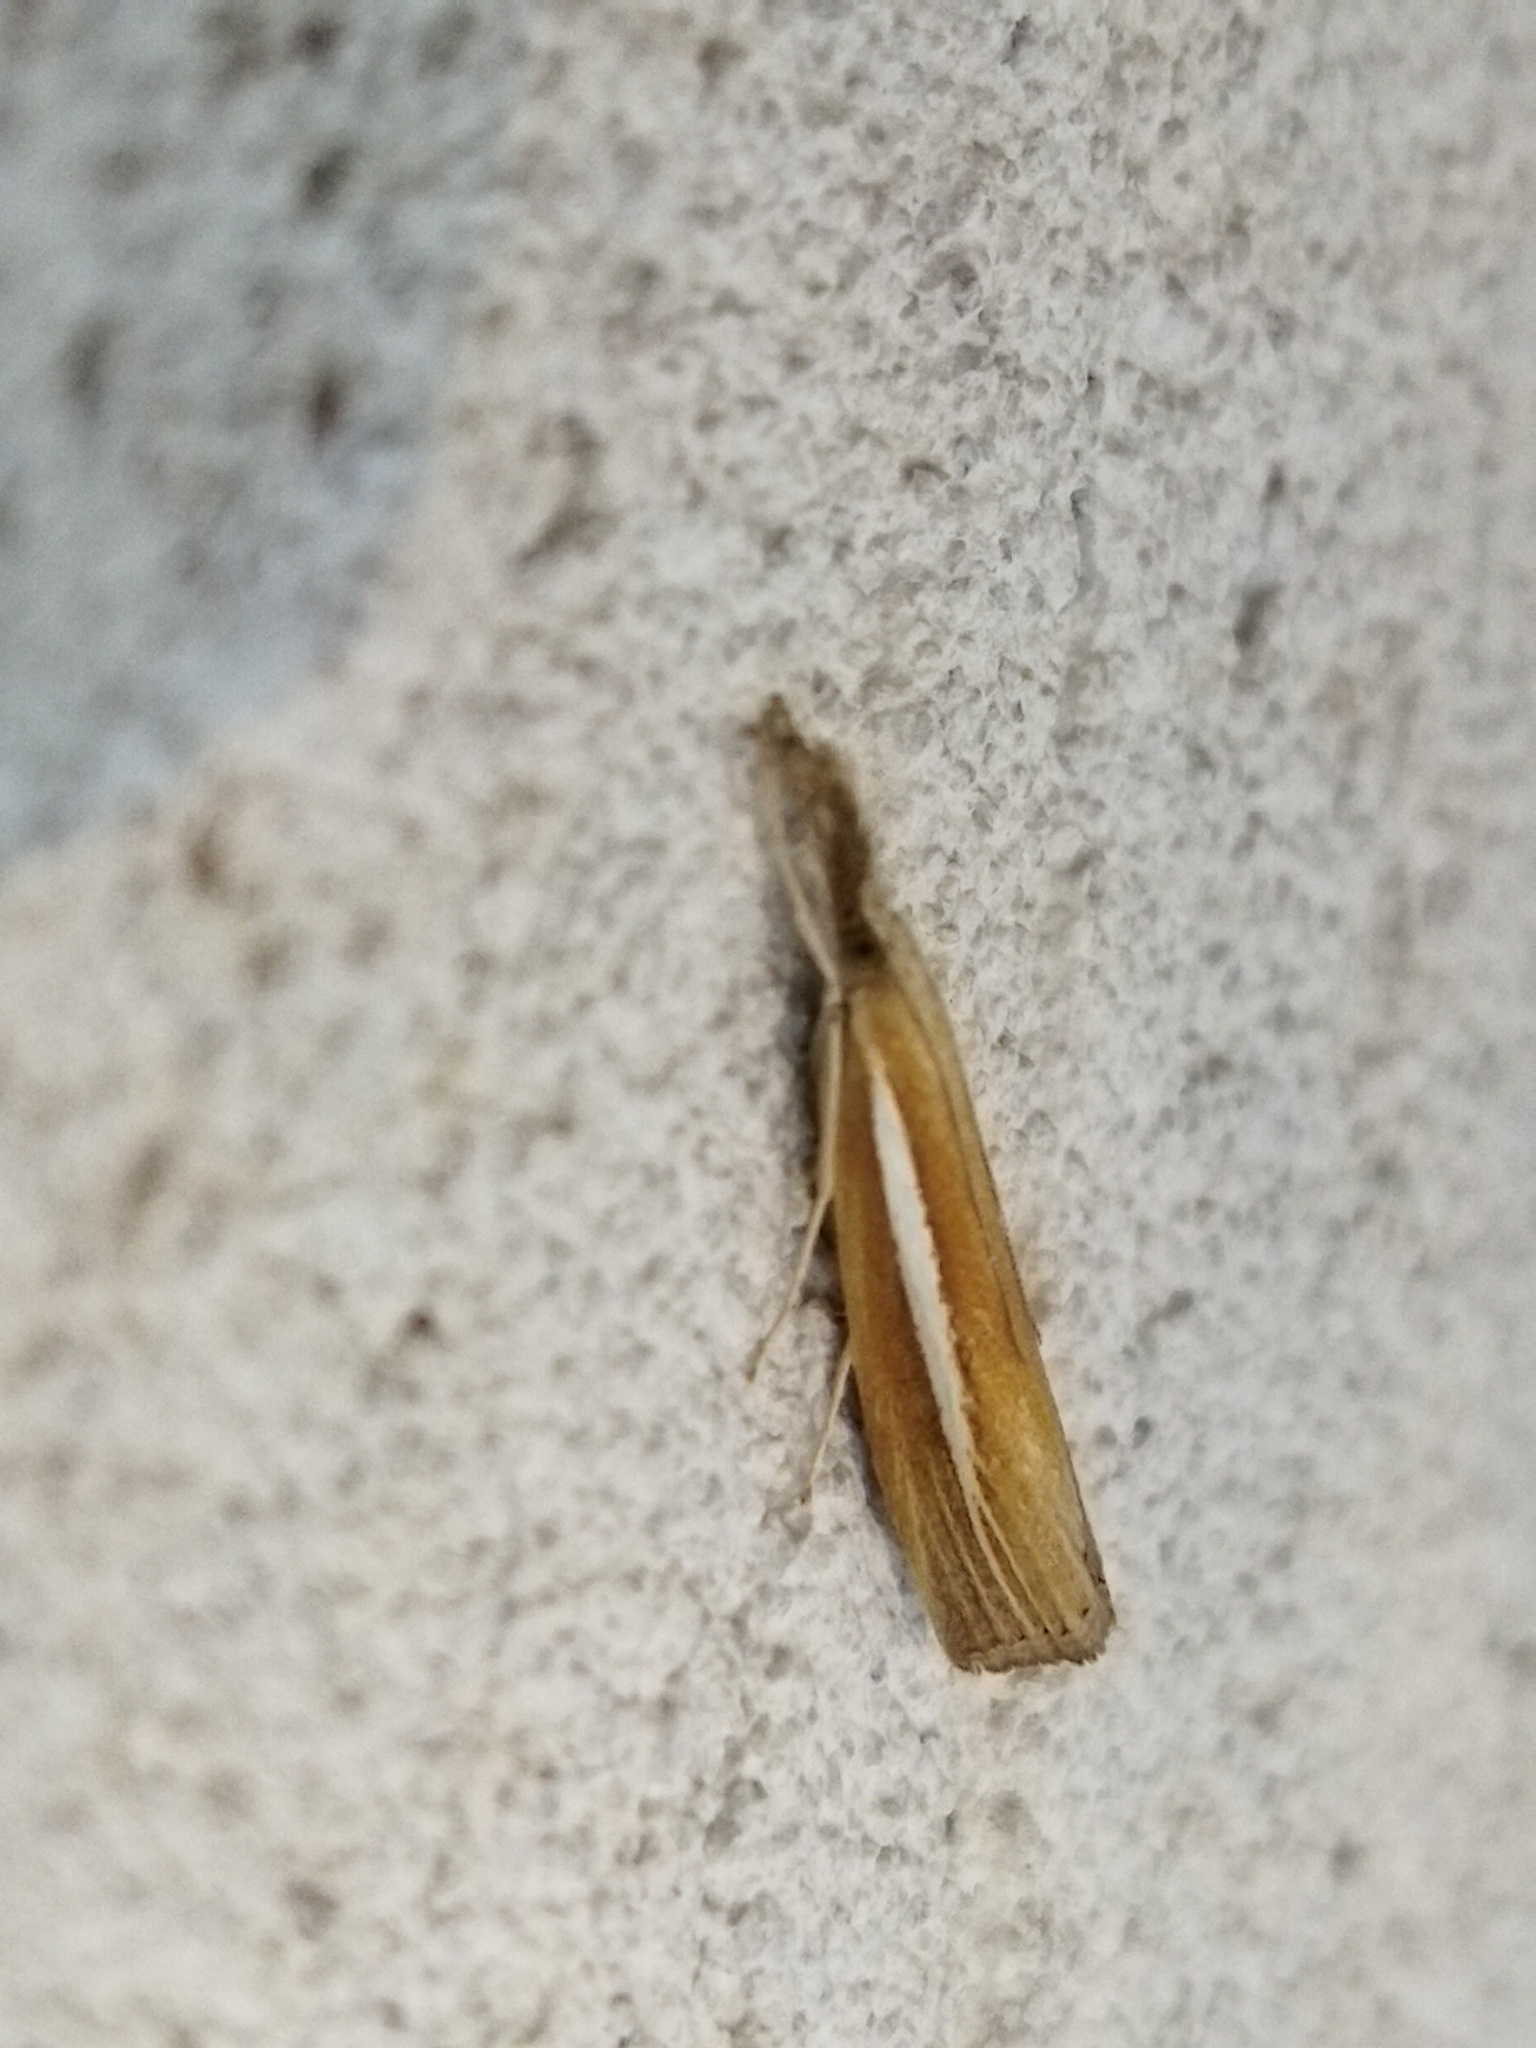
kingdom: Animalia
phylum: Arthropoda
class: Insecta
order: Lepidoptera
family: Crambidae
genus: Agriphila
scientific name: Agriphila selasella
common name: Pale-streak grass-veneer
